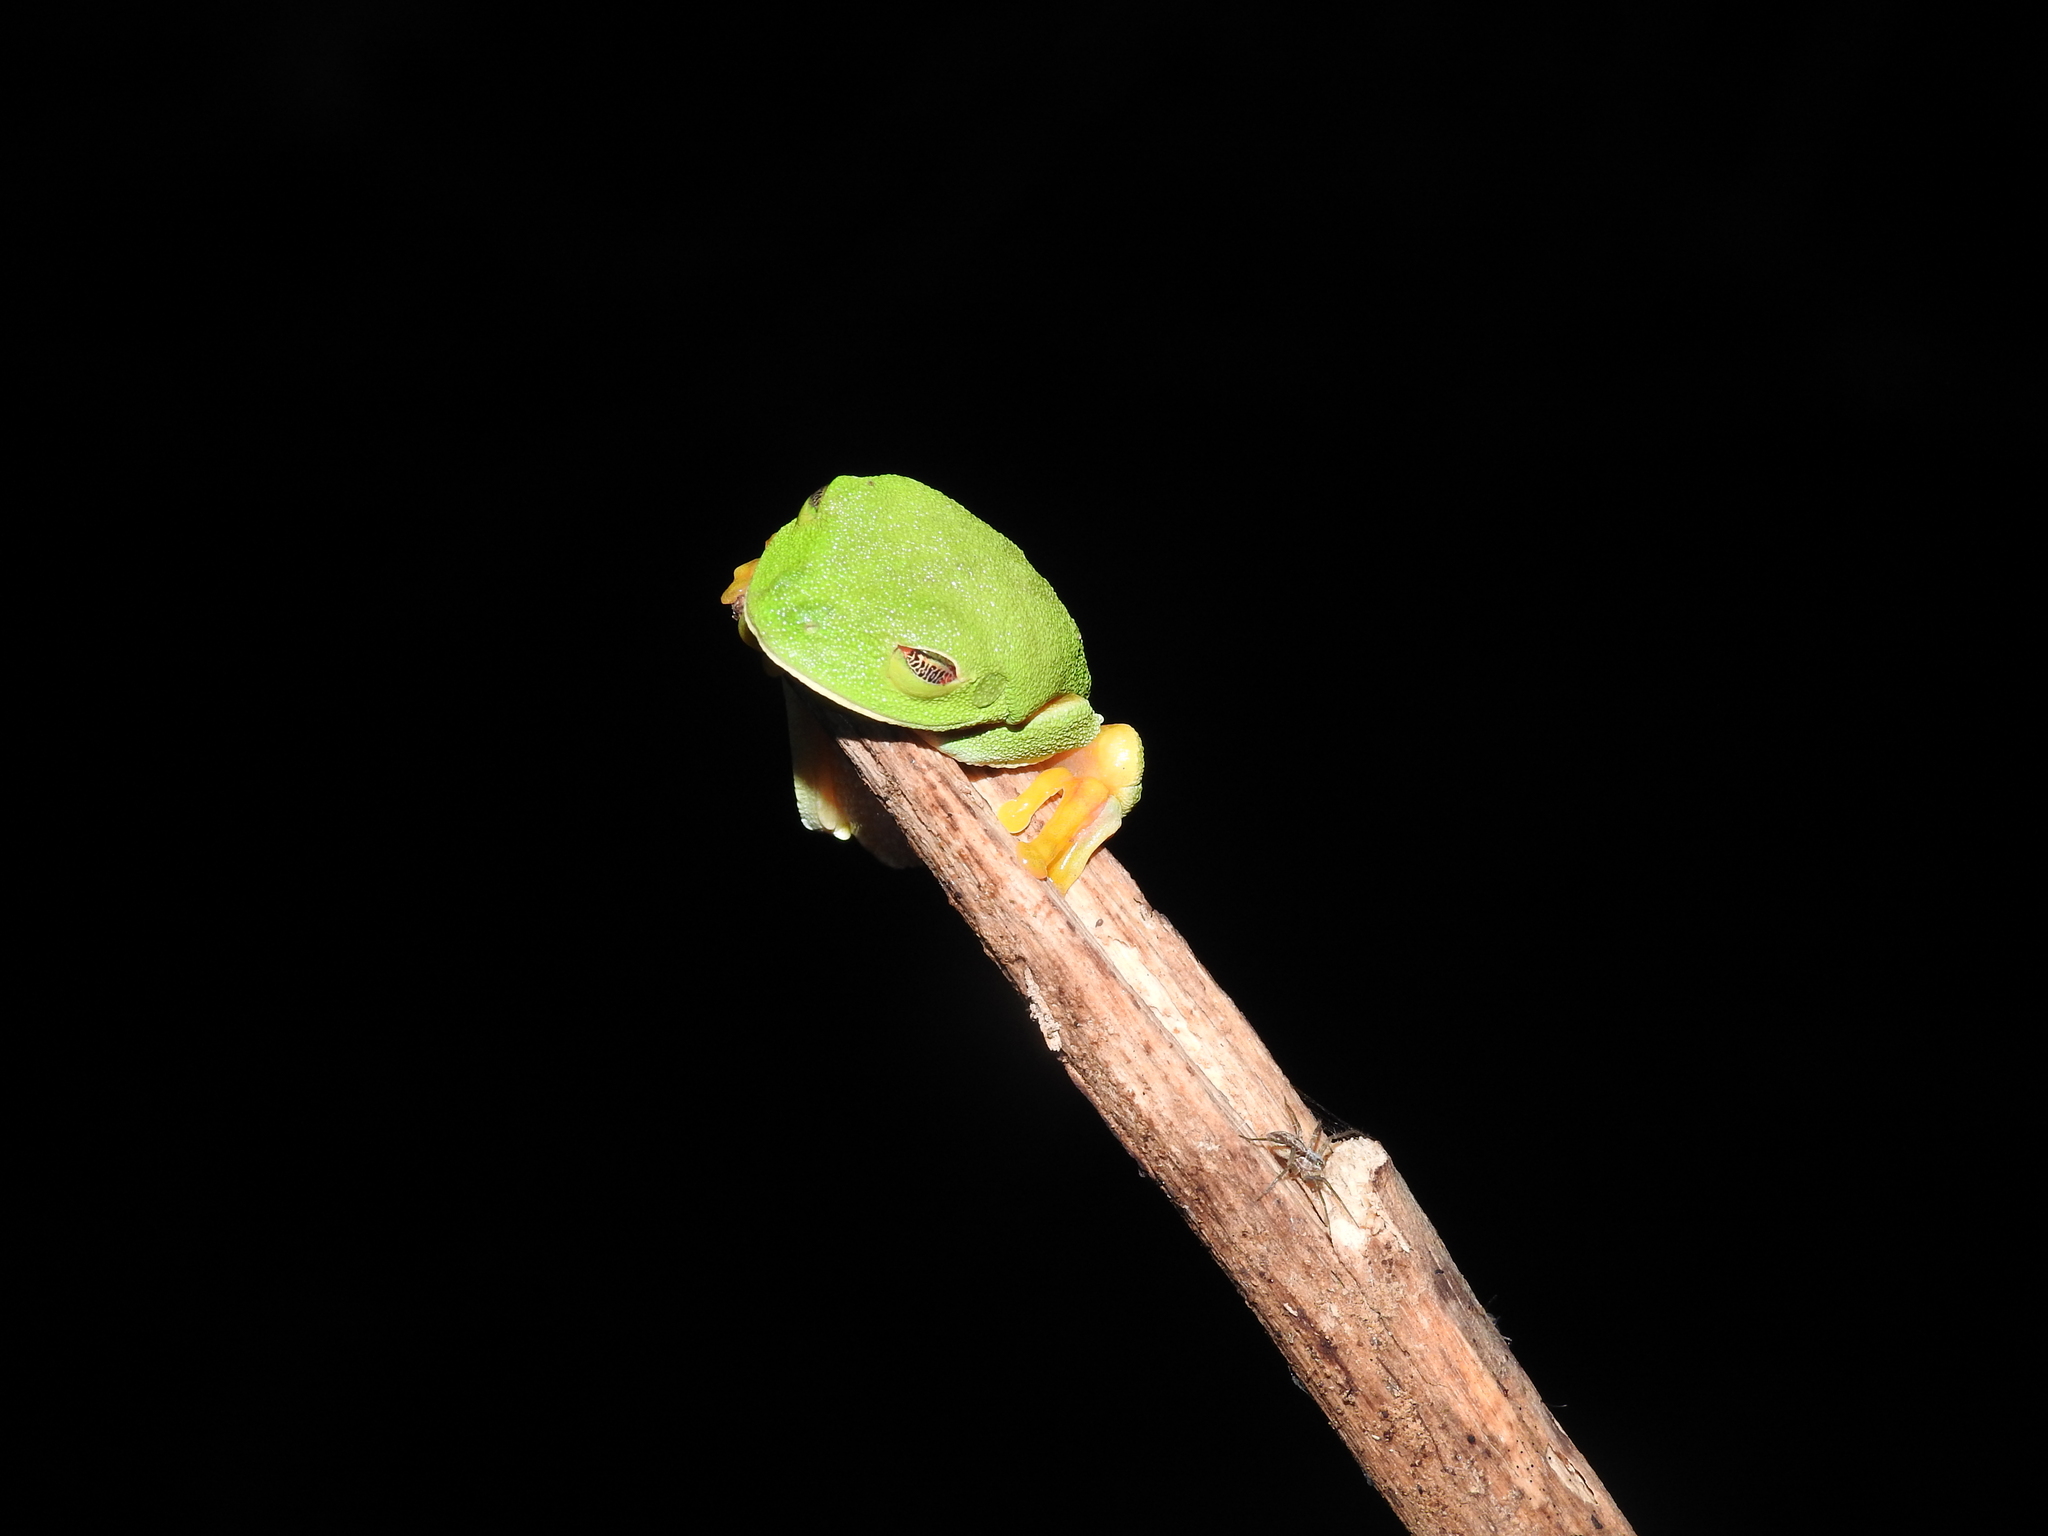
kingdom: Animalia
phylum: Chordata
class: Amphibia
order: Anura
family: Phyllomedusidae
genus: Agalychnis
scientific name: Agalychnis
